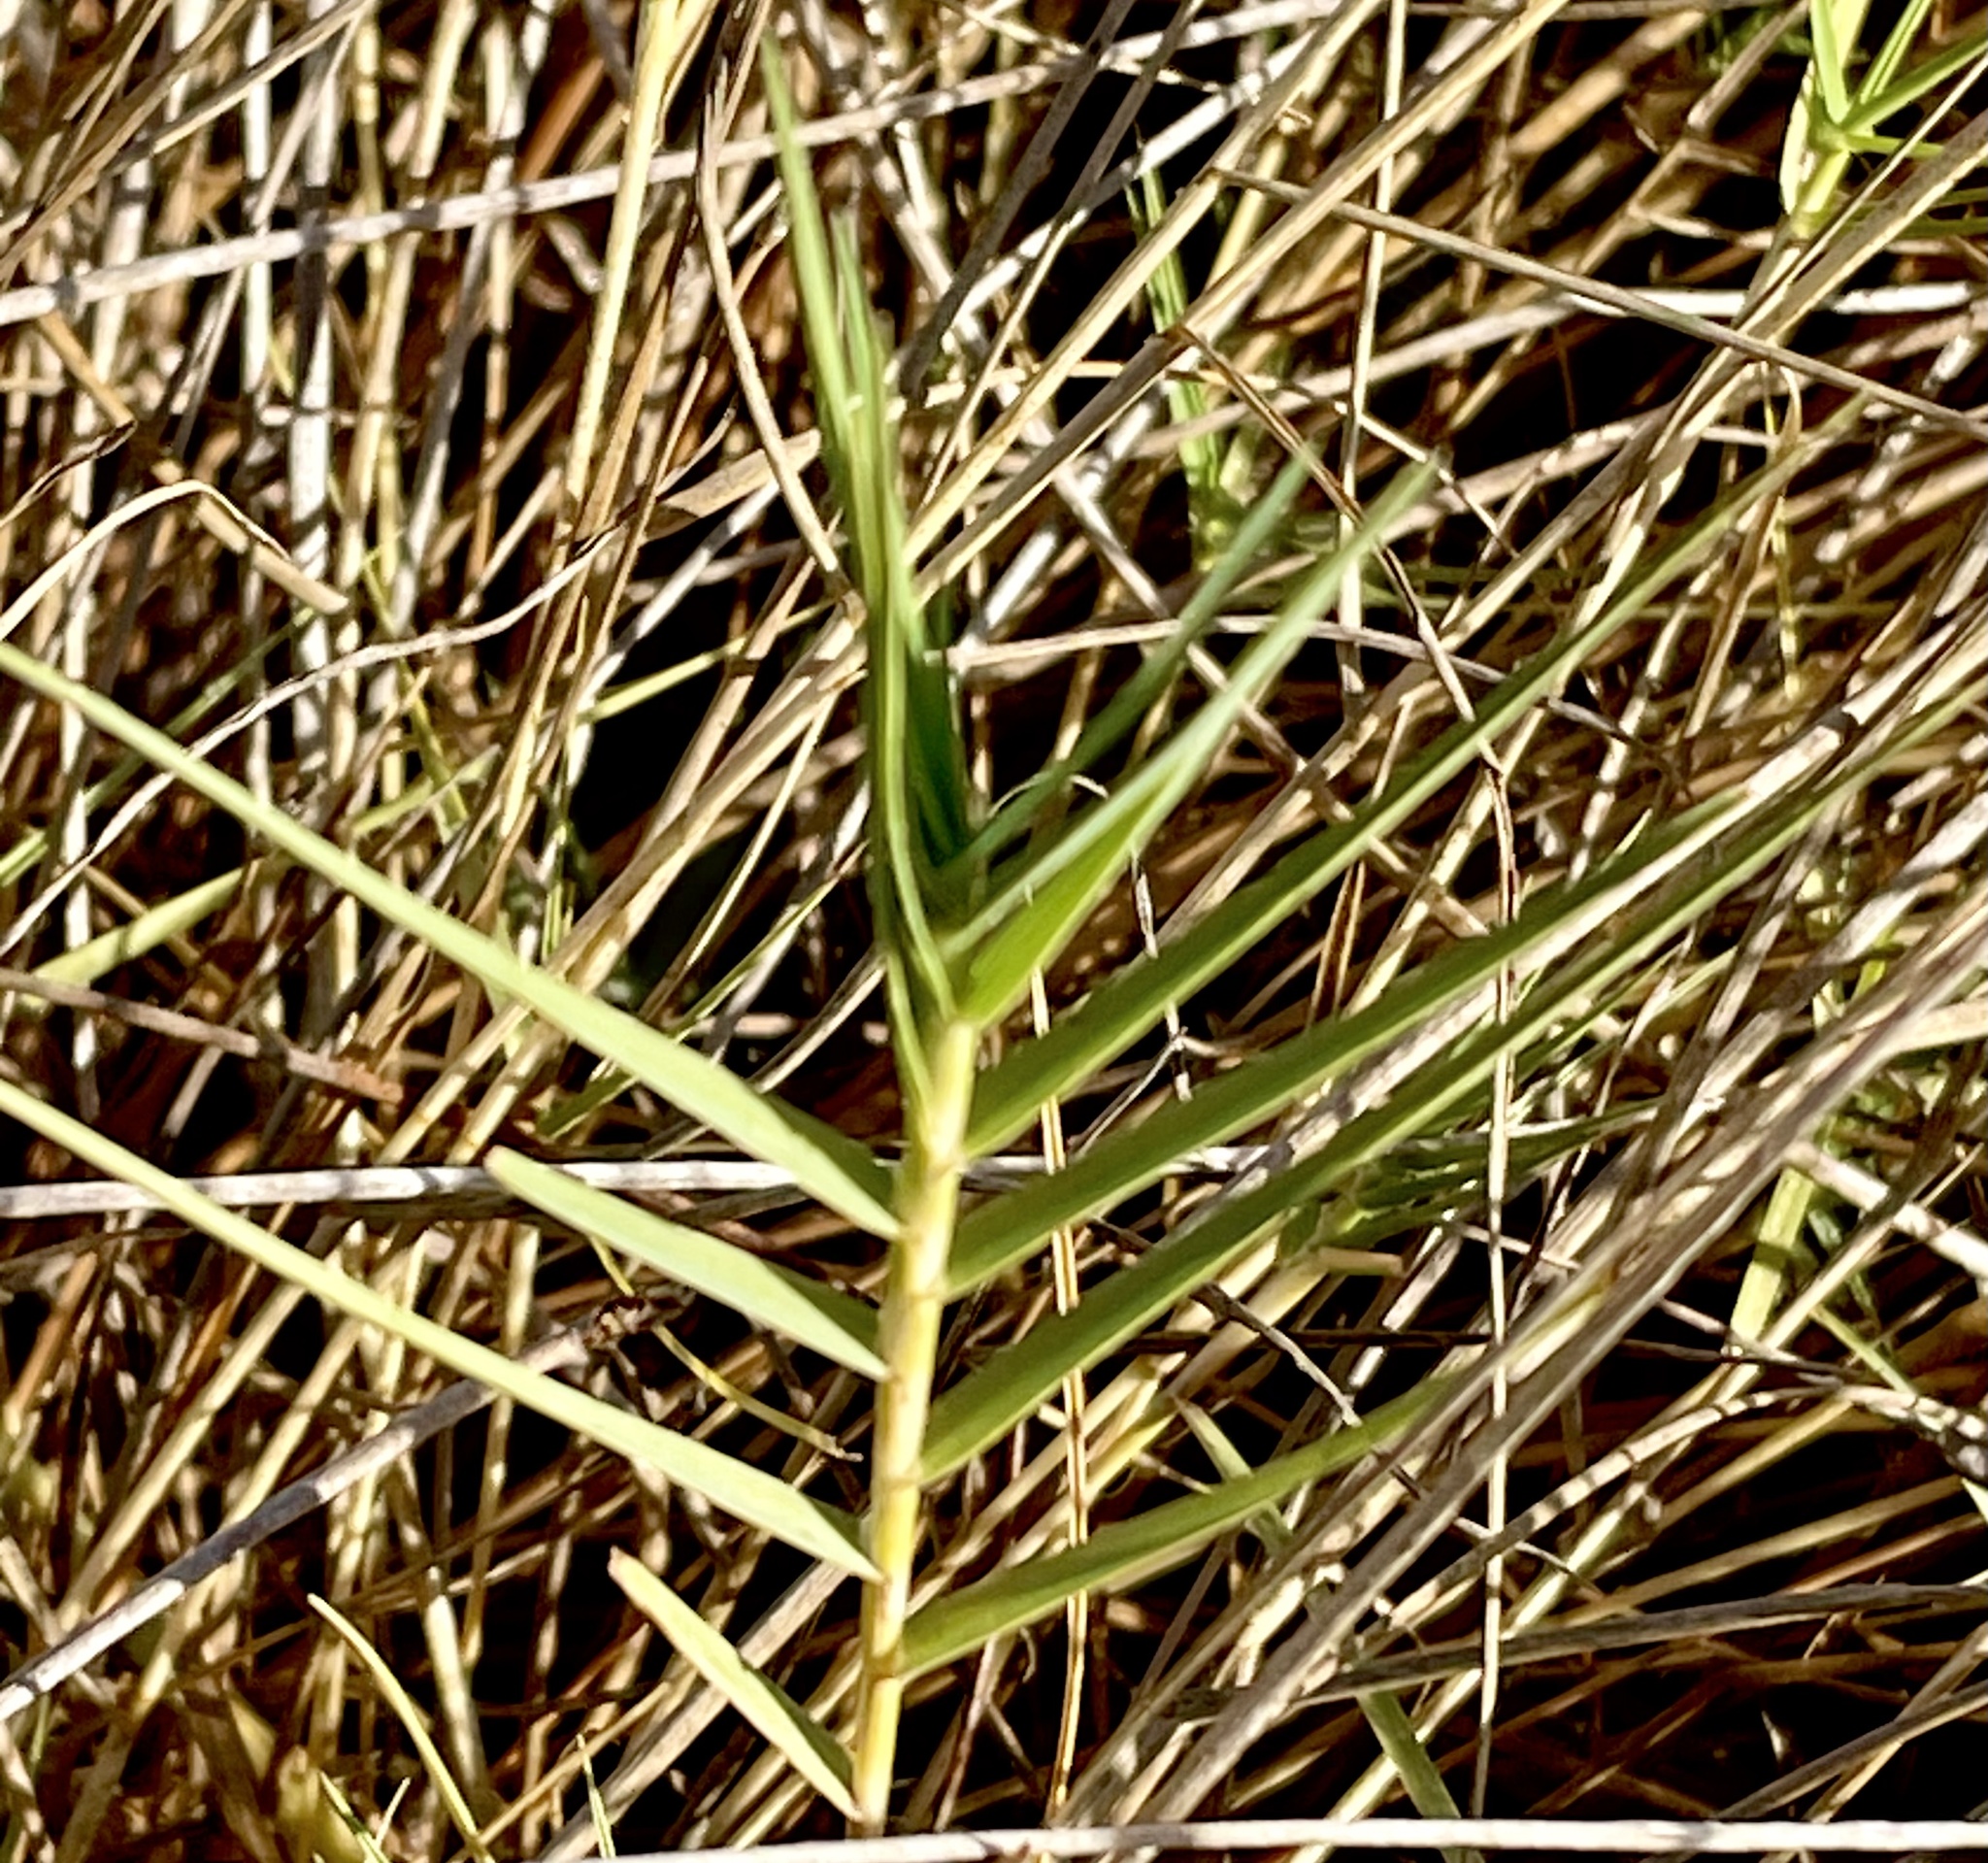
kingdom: Plantae
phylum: Tracheophyta
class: Liliopsida
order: Poales
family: Poaceae
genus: Distichlis
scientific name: Distichlis spicata
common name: Saltgrass
